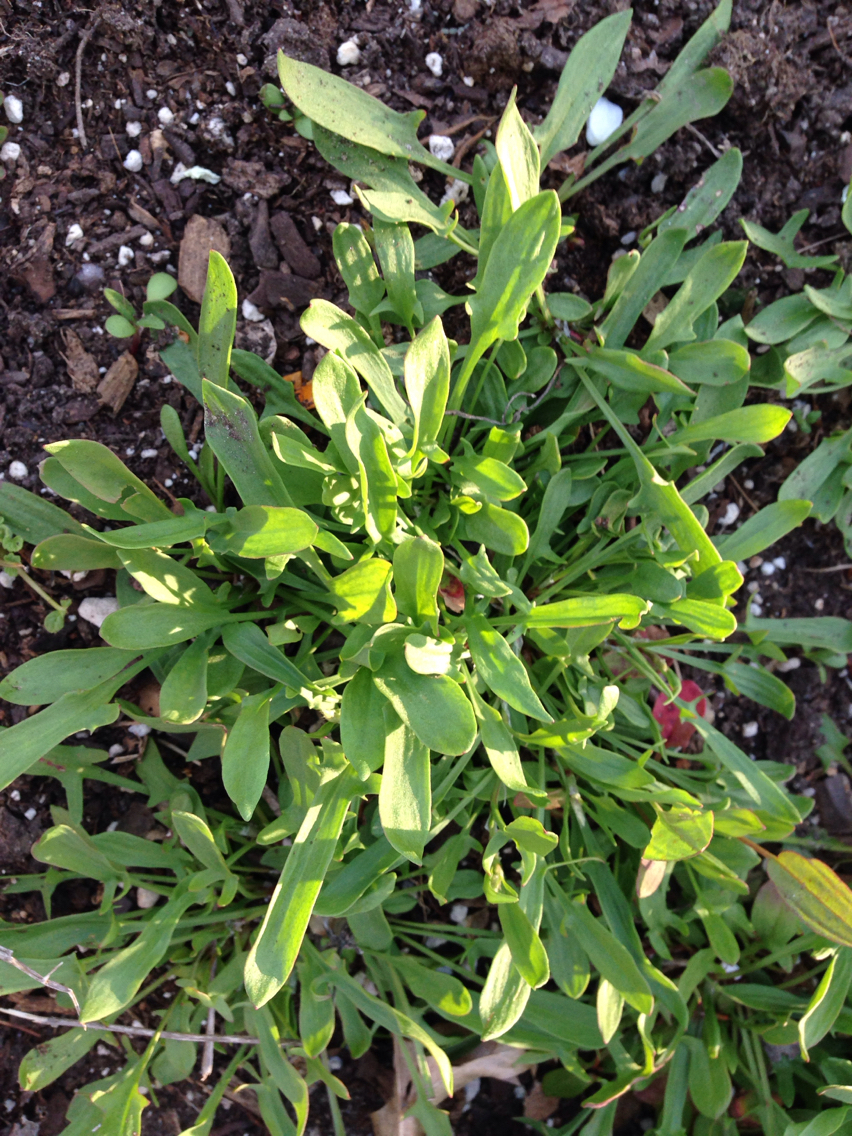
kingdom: Plantae
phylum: Tracheophyta
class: Magnoliopsida
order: Caryophyllales
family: Polygonaceae
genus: Rumex
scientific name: Rumex acetosella
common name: Common sheep sorrel
